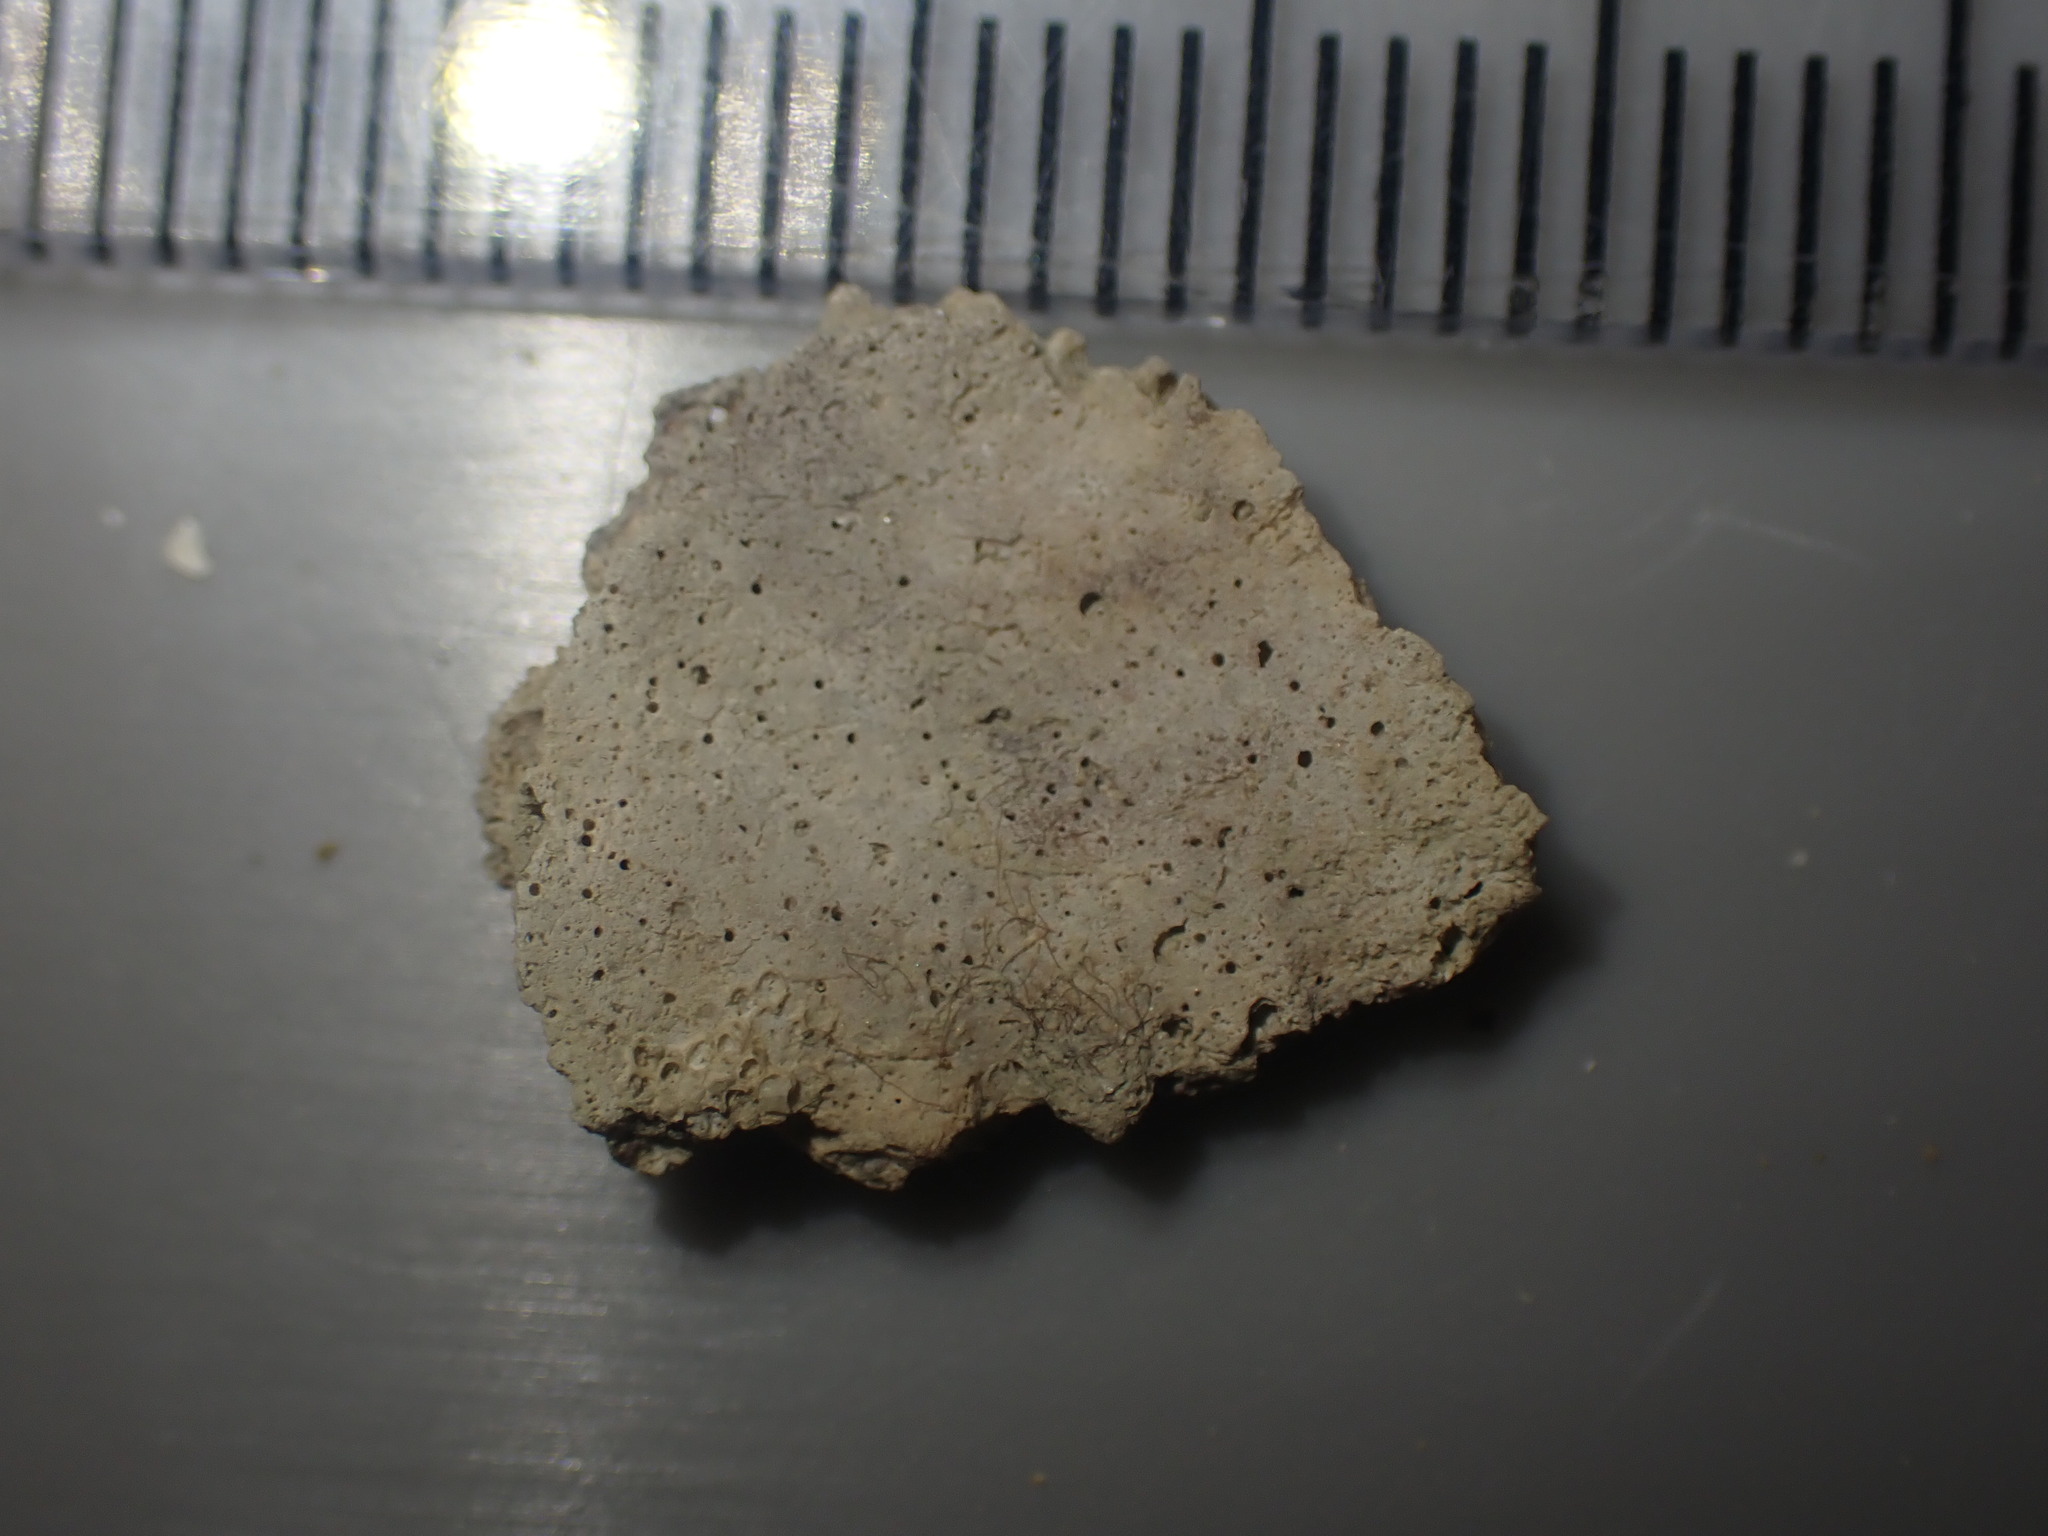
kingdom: Animalia
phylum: Mollusca
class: Bivalvia
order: Carditida
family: Carditidae
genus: Purpurocardia
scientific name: Purpurocardia purpurata
